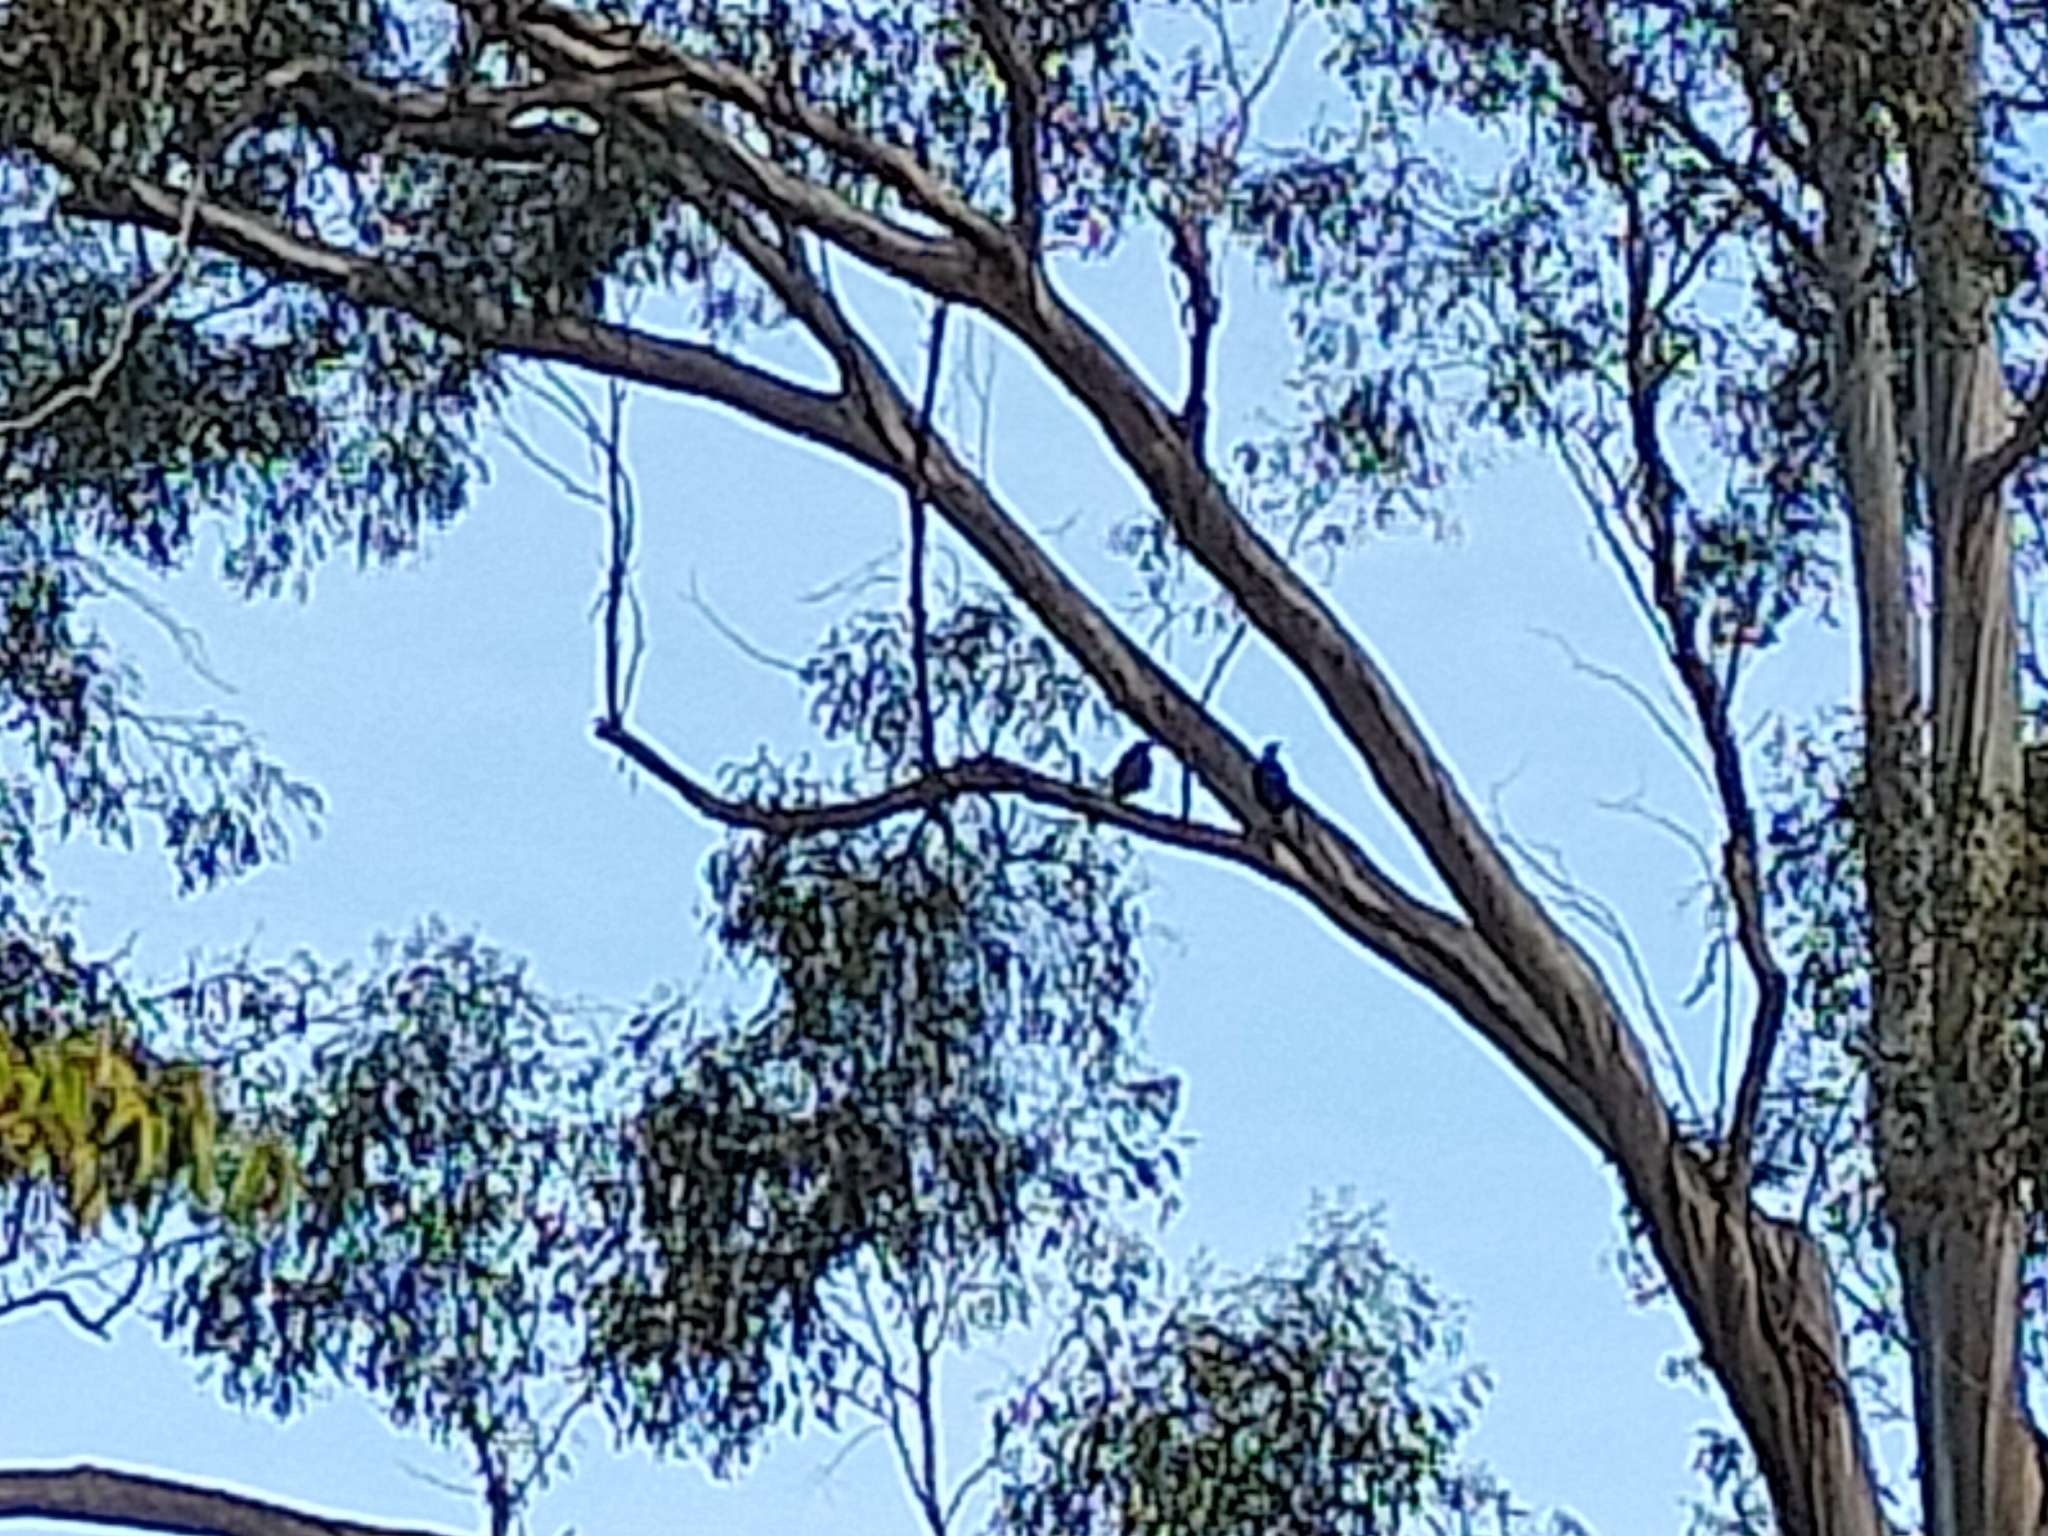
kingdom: Animalia
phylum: Chordata
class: Aves
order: Passeriformes
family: Cracticidae
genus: Gymnorhina
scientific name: Gymnorhina tibicen
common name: Australian magpie
